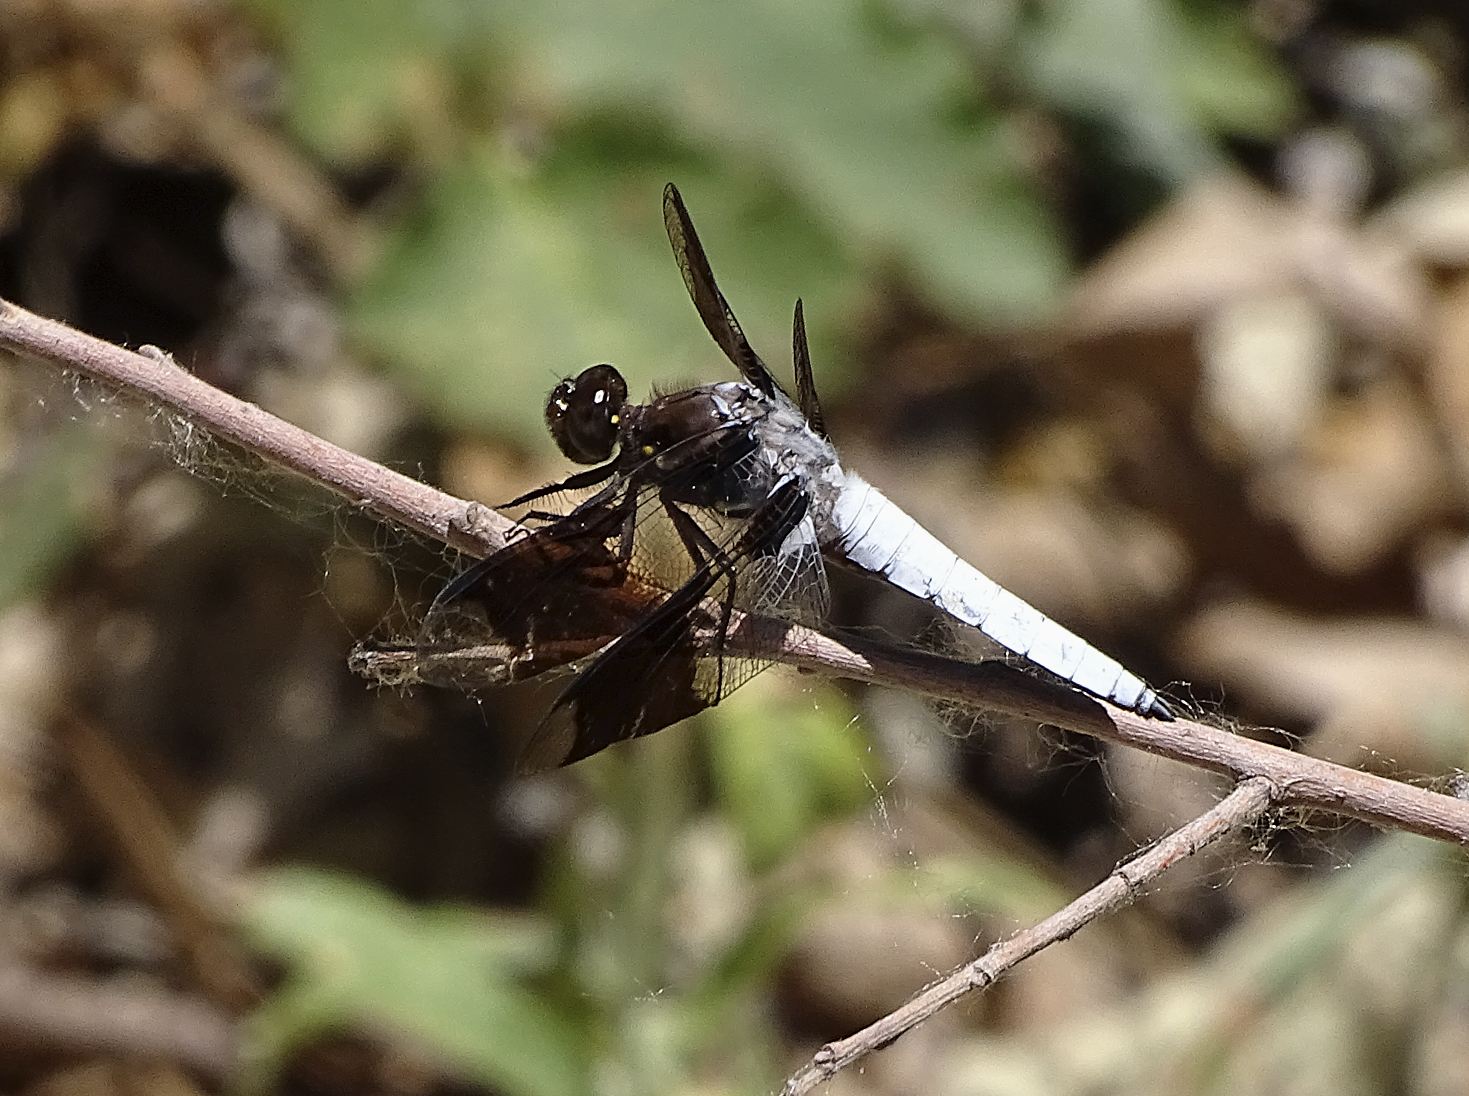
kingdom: Animalia
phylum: Arthropoda
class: Insecta
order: Odonata
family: Libellulidae
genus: Plathemis
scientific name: Plathemis lydia
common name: Common whitetail
